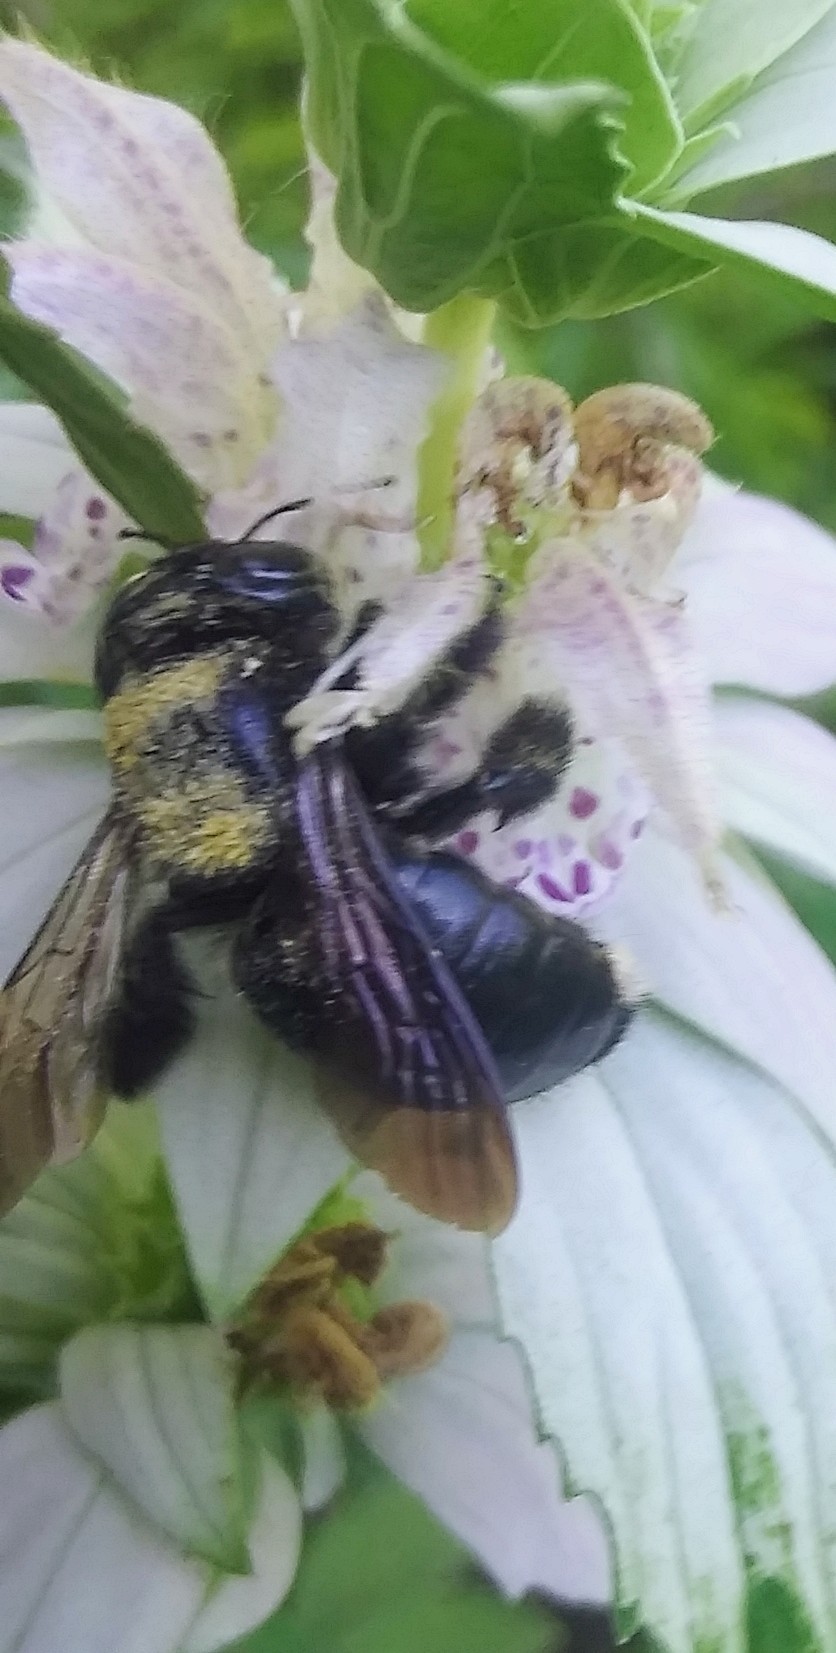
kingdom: Animalia
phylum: Arthropoda
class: Insecta
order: Hymenoptera
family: Apidae
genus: Xylocopa
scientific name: Xylocopa micans
